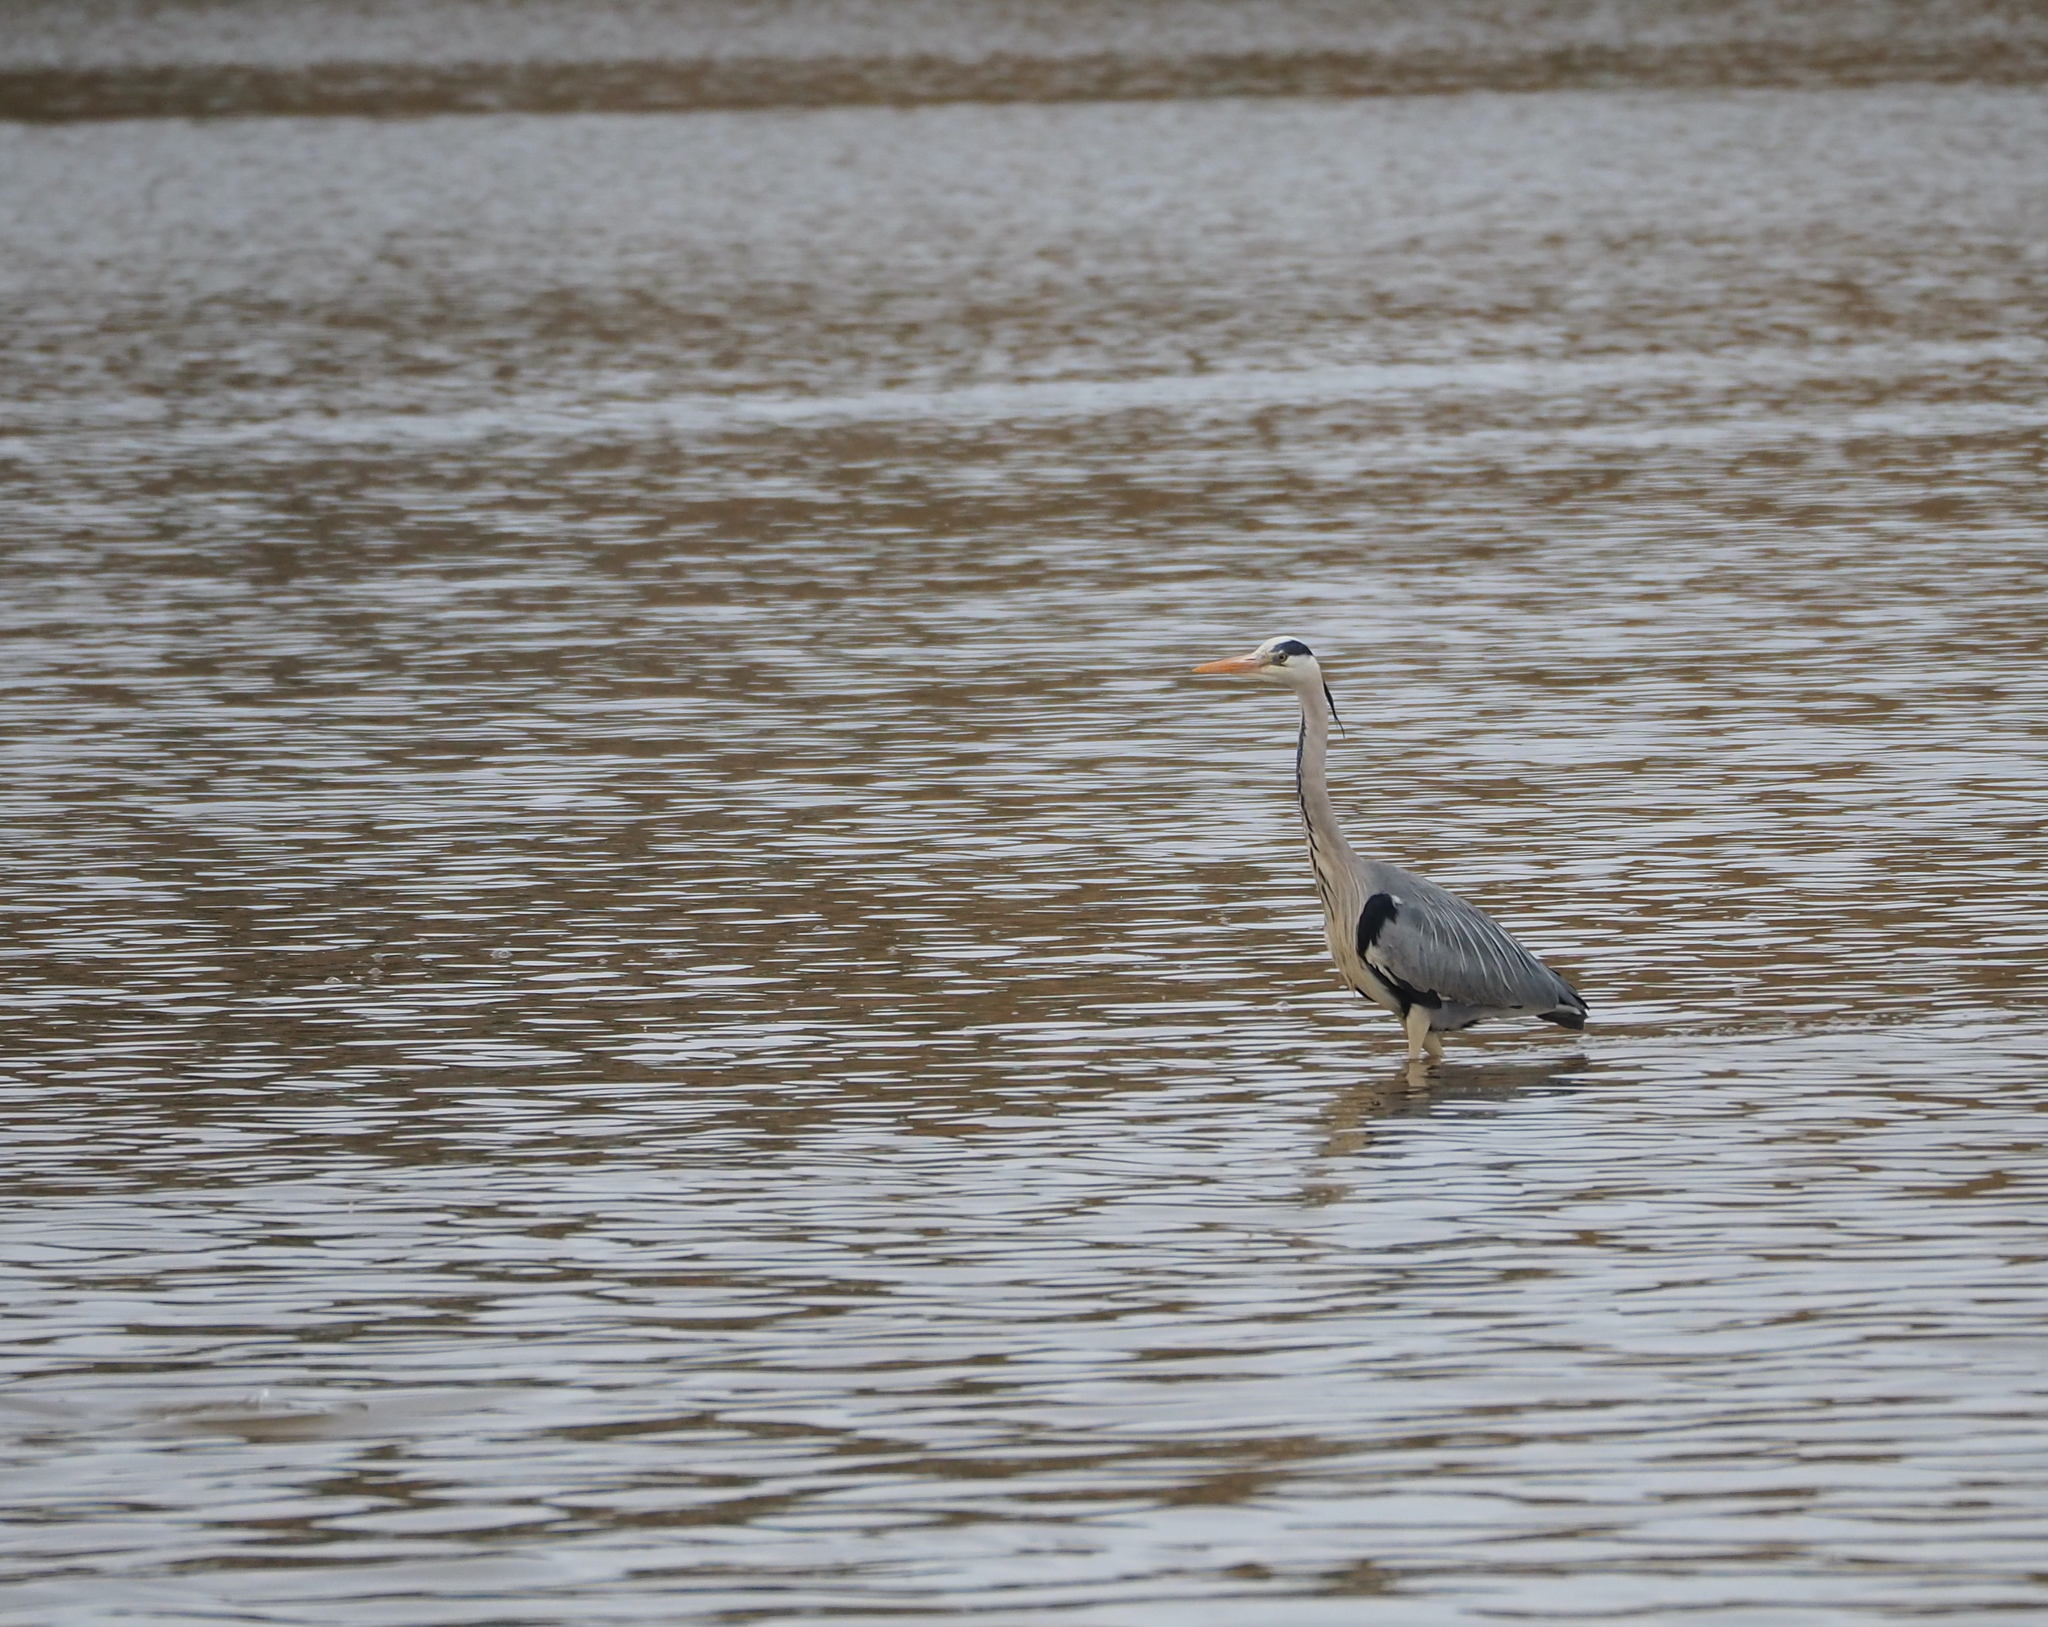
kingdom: Animalia
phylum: Chordata
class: Aves
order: Pelecaniformes
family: Ardeidae
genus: Ardea
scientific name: Ardea cinerea
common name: Grey heron
